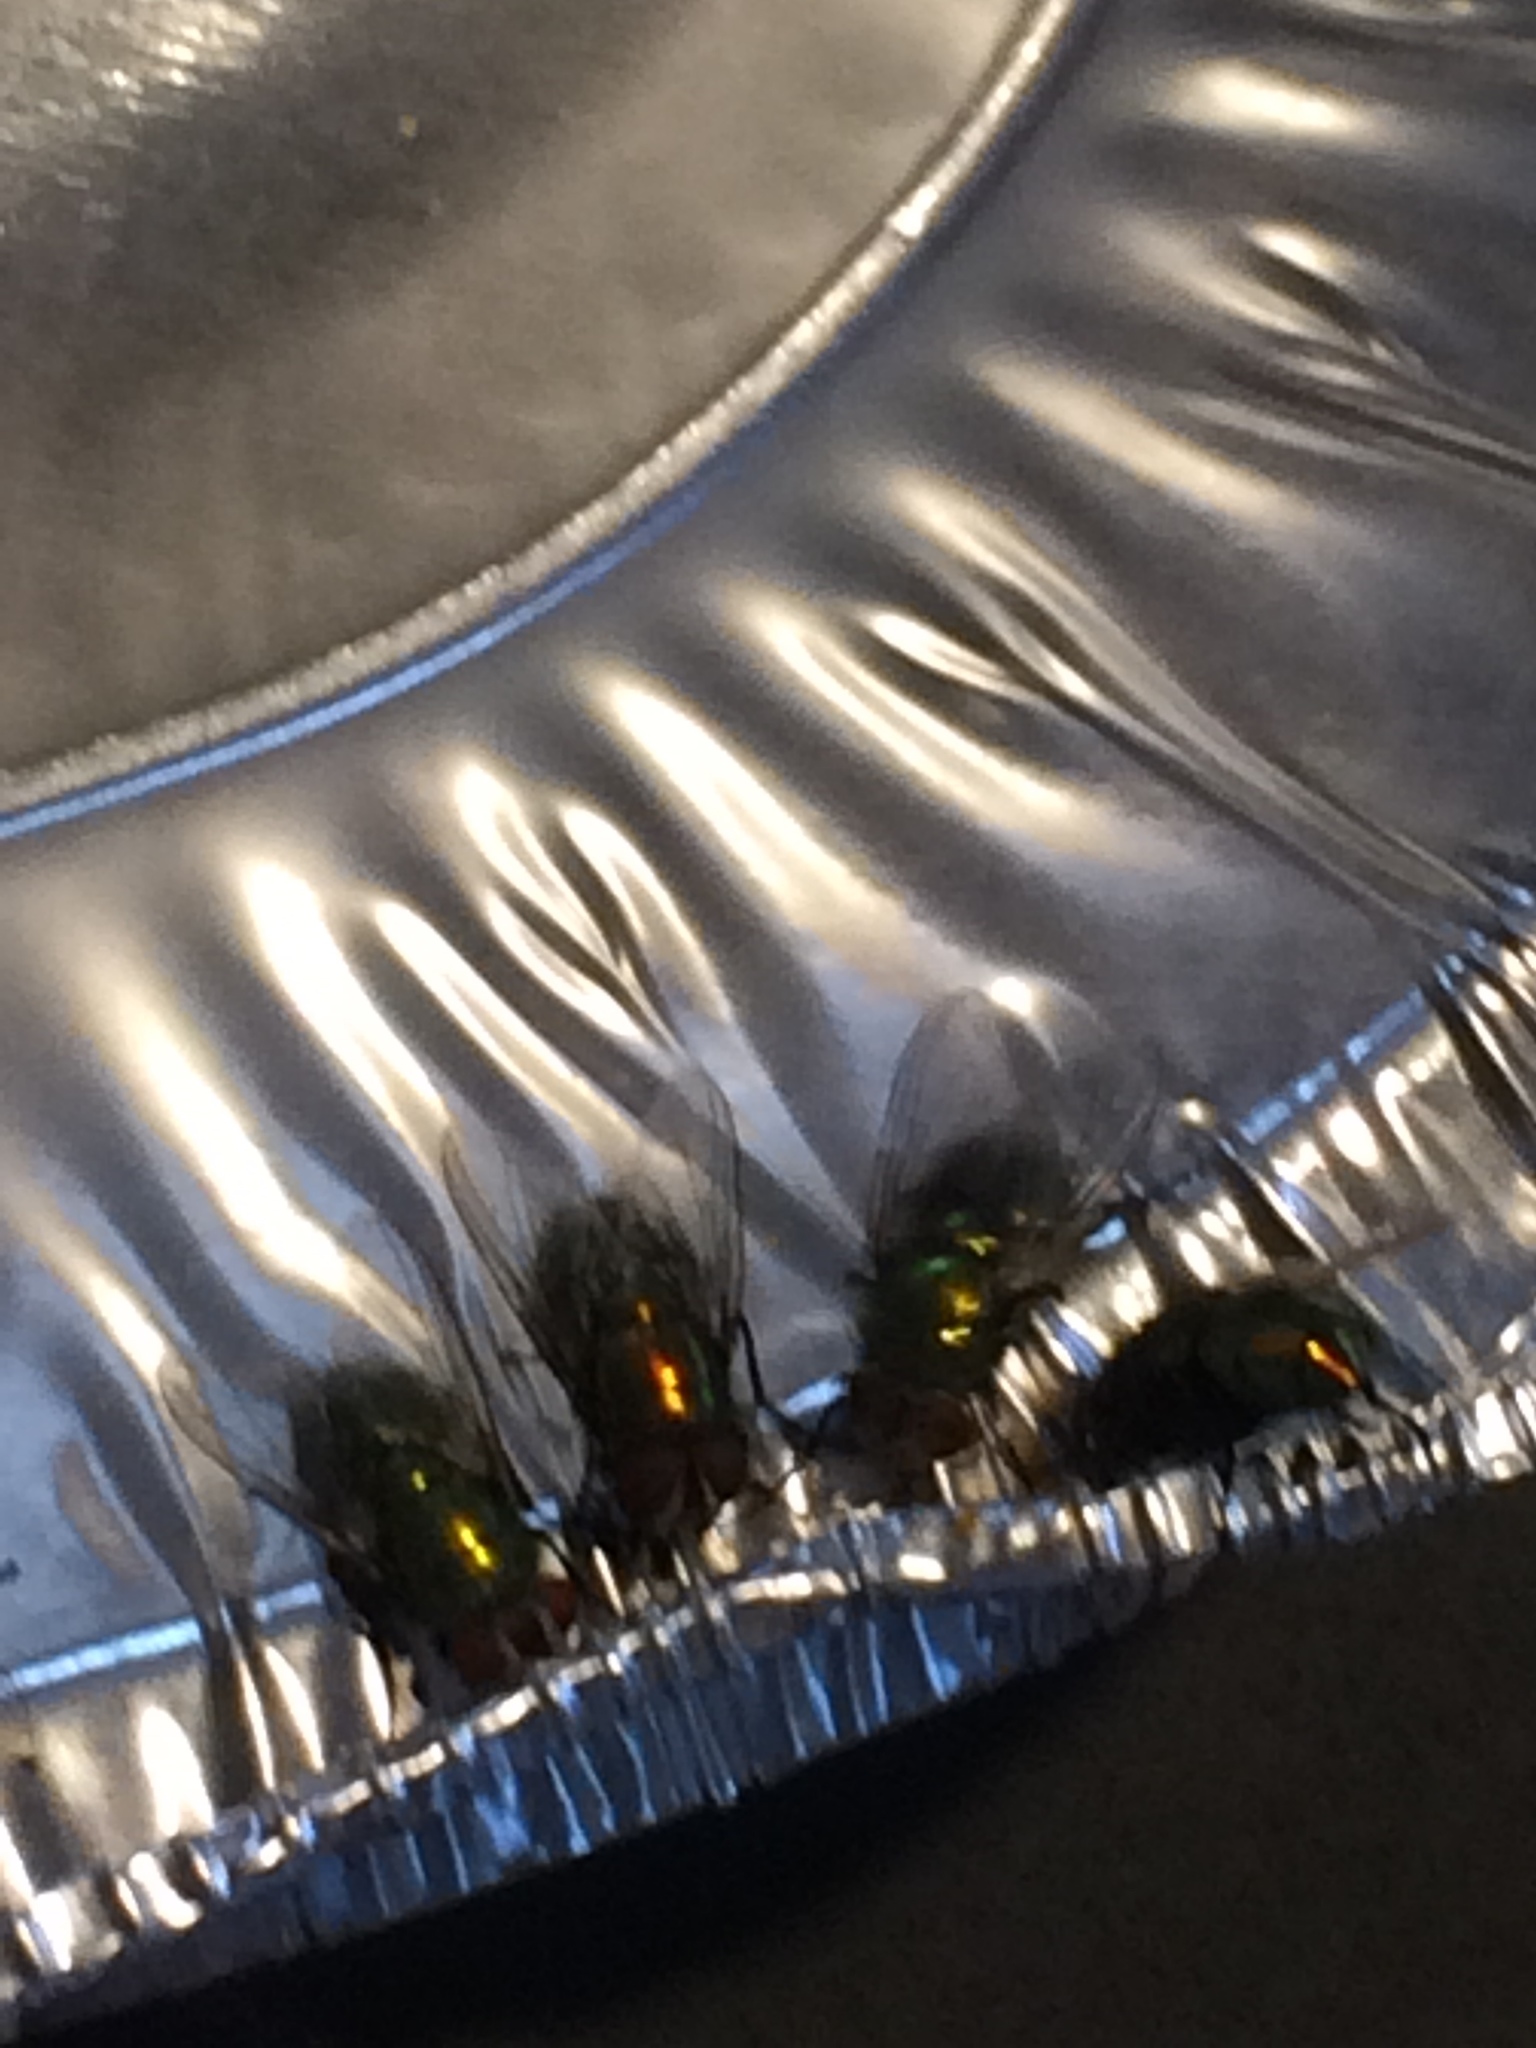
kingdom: Animalia
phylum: Arthropoda
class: Insecta
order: Diptera
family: Calliphoridae
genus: Lucilia
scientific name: Lucilia sericata
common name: Blow fly
